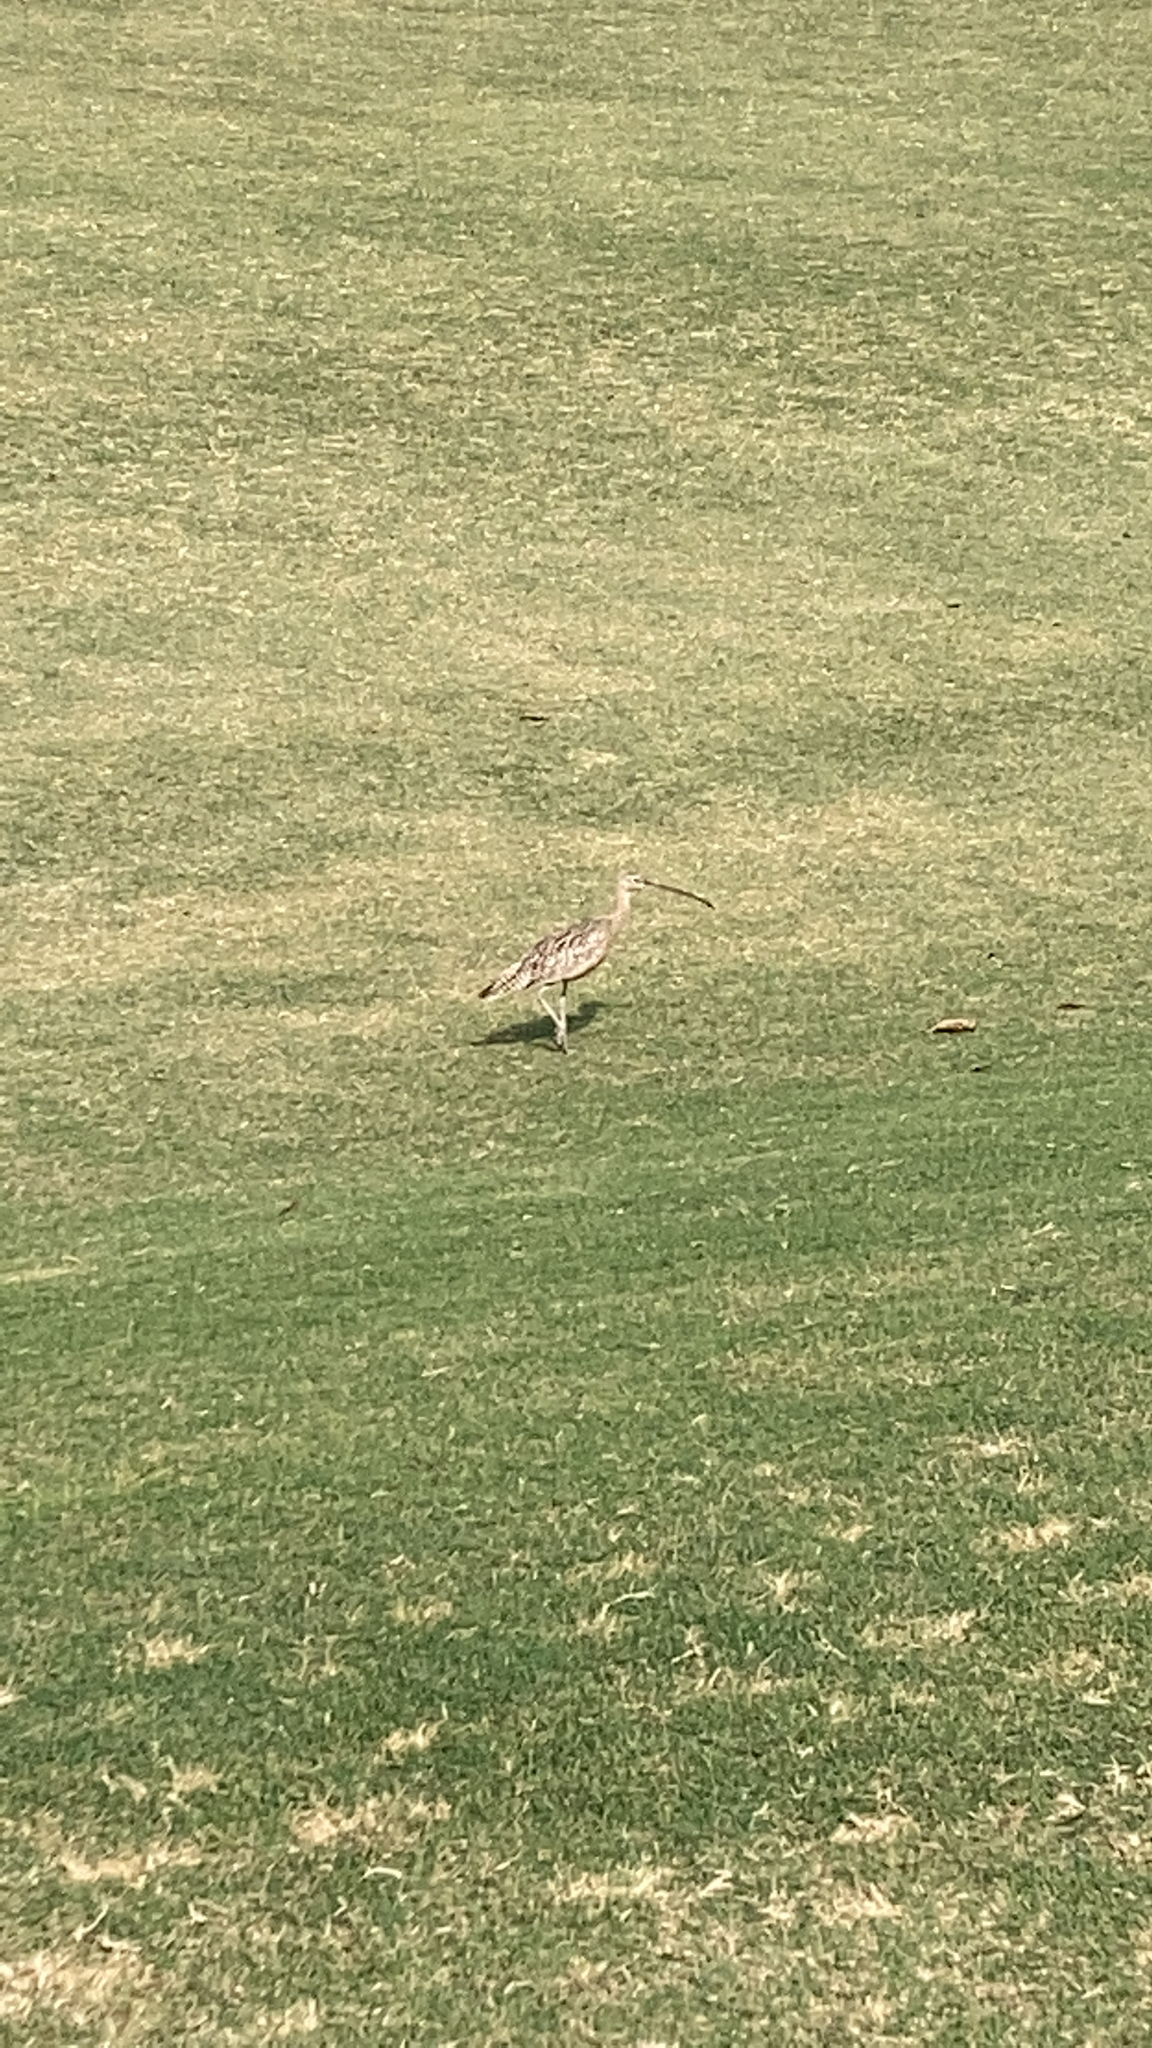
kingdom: Animalia
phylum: Chordata
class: Aves
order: Charadriiformes
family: Scolopacidae
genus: Numenius
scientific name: Numenius americanus
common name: Long-billed curlew
